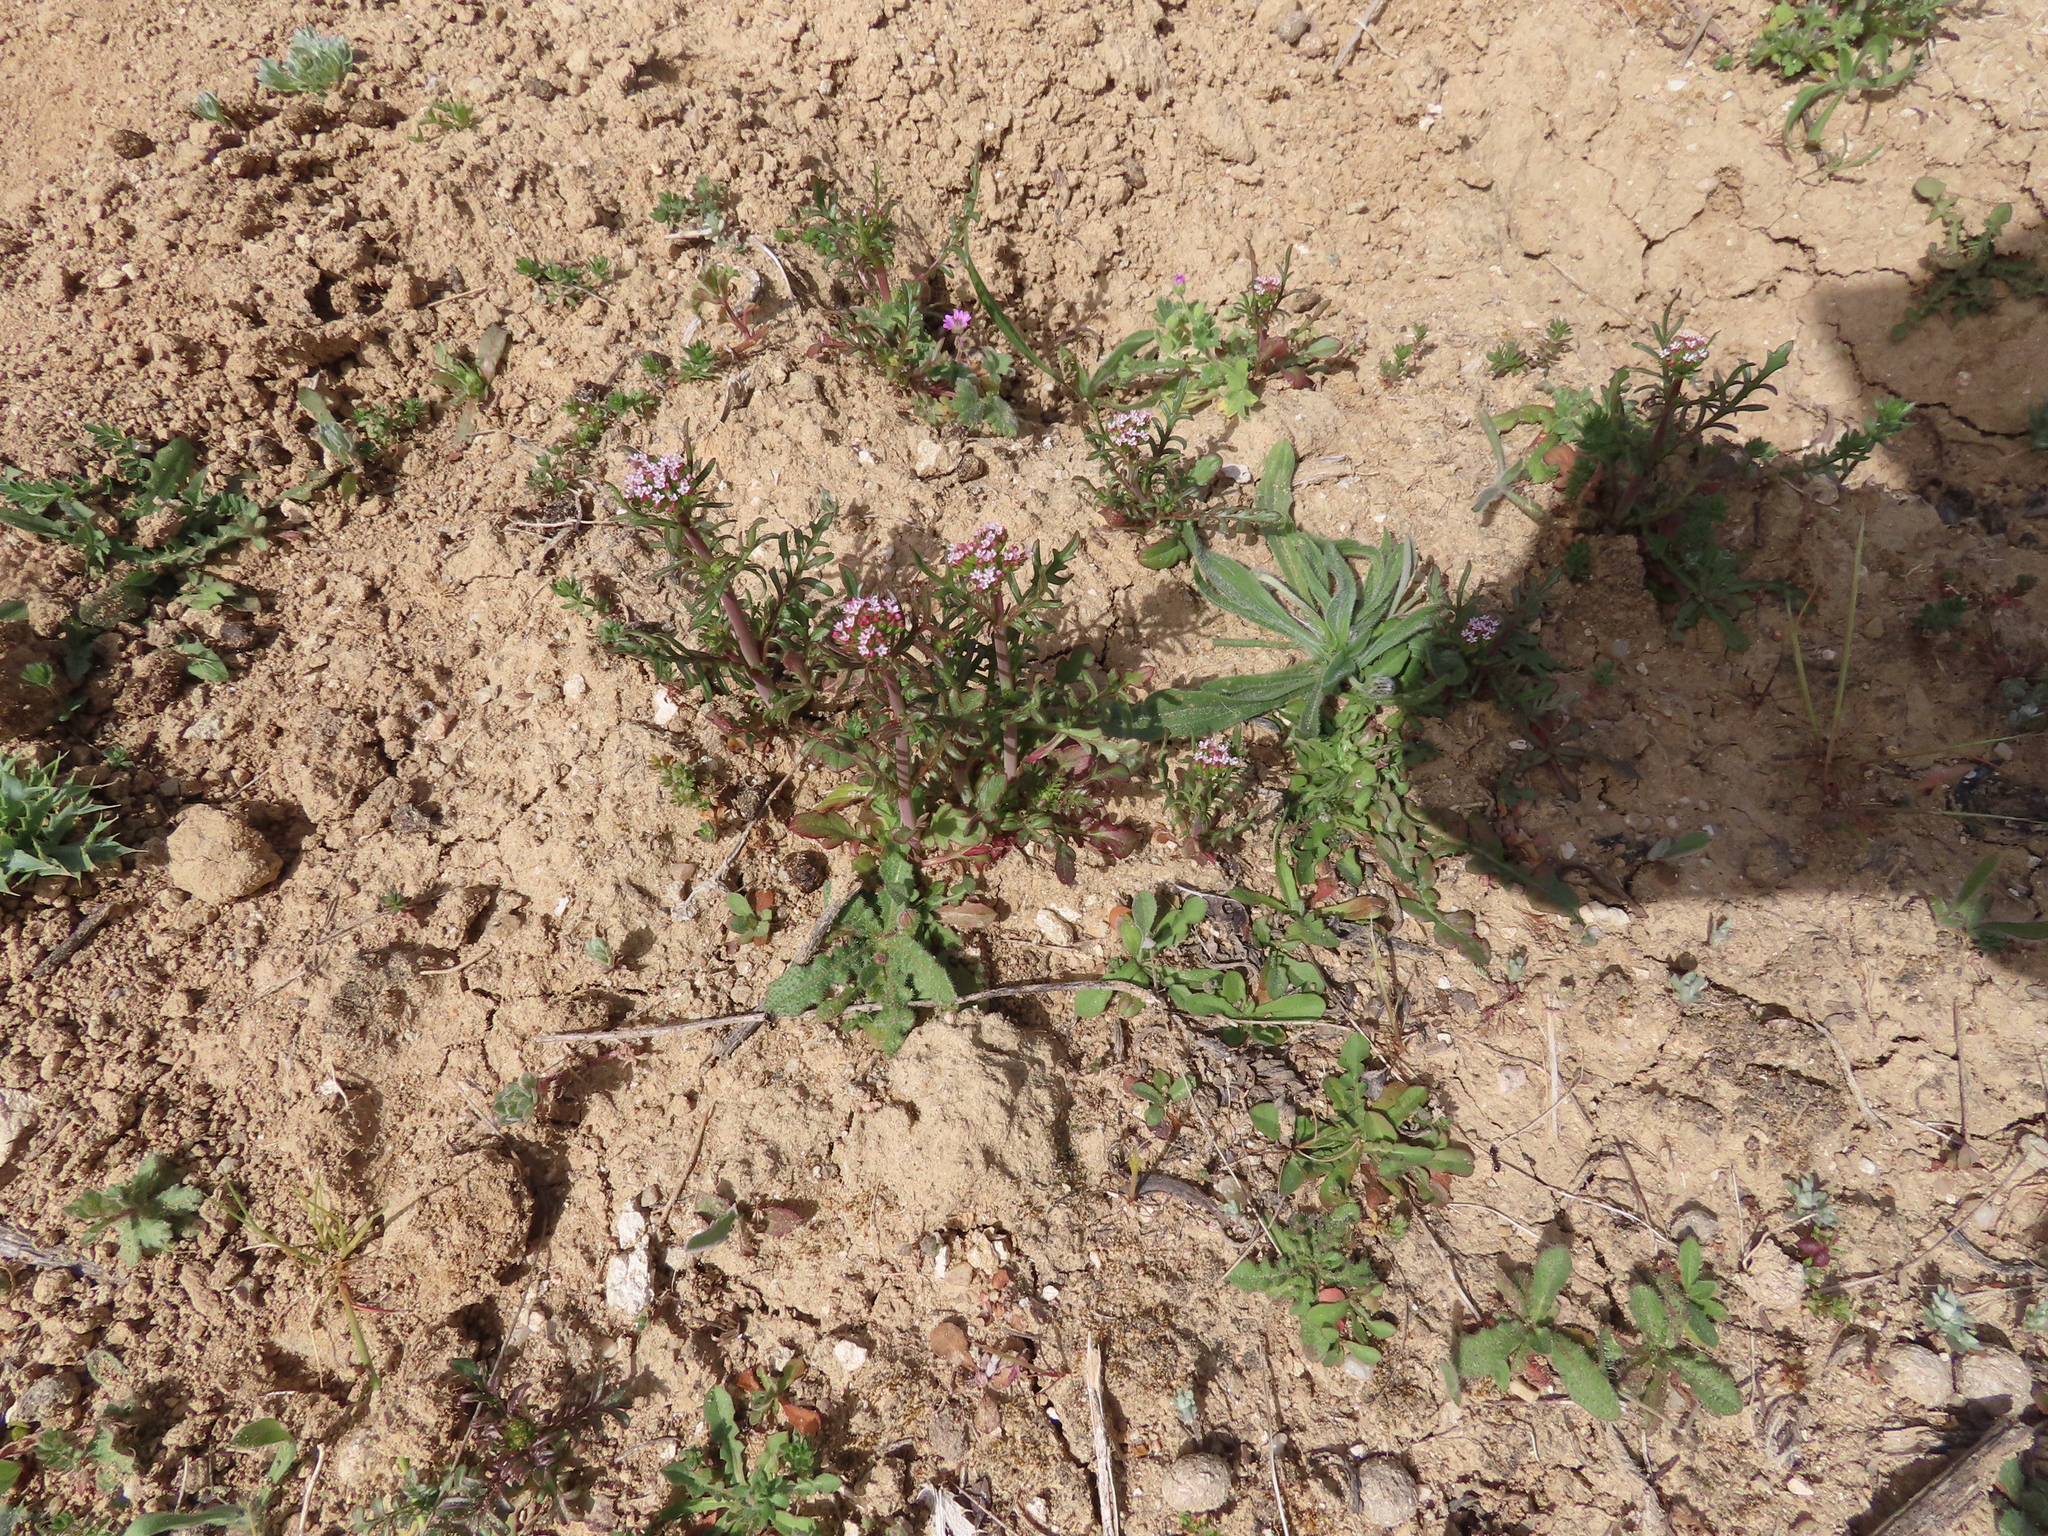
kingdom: Plantae
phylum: Tracheophyta
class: Magnoliopsida
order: Dipsacales
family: Caprifoliaceae
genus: Centranthus
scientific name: Centranthus calcitrapae
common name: Annual valerian
